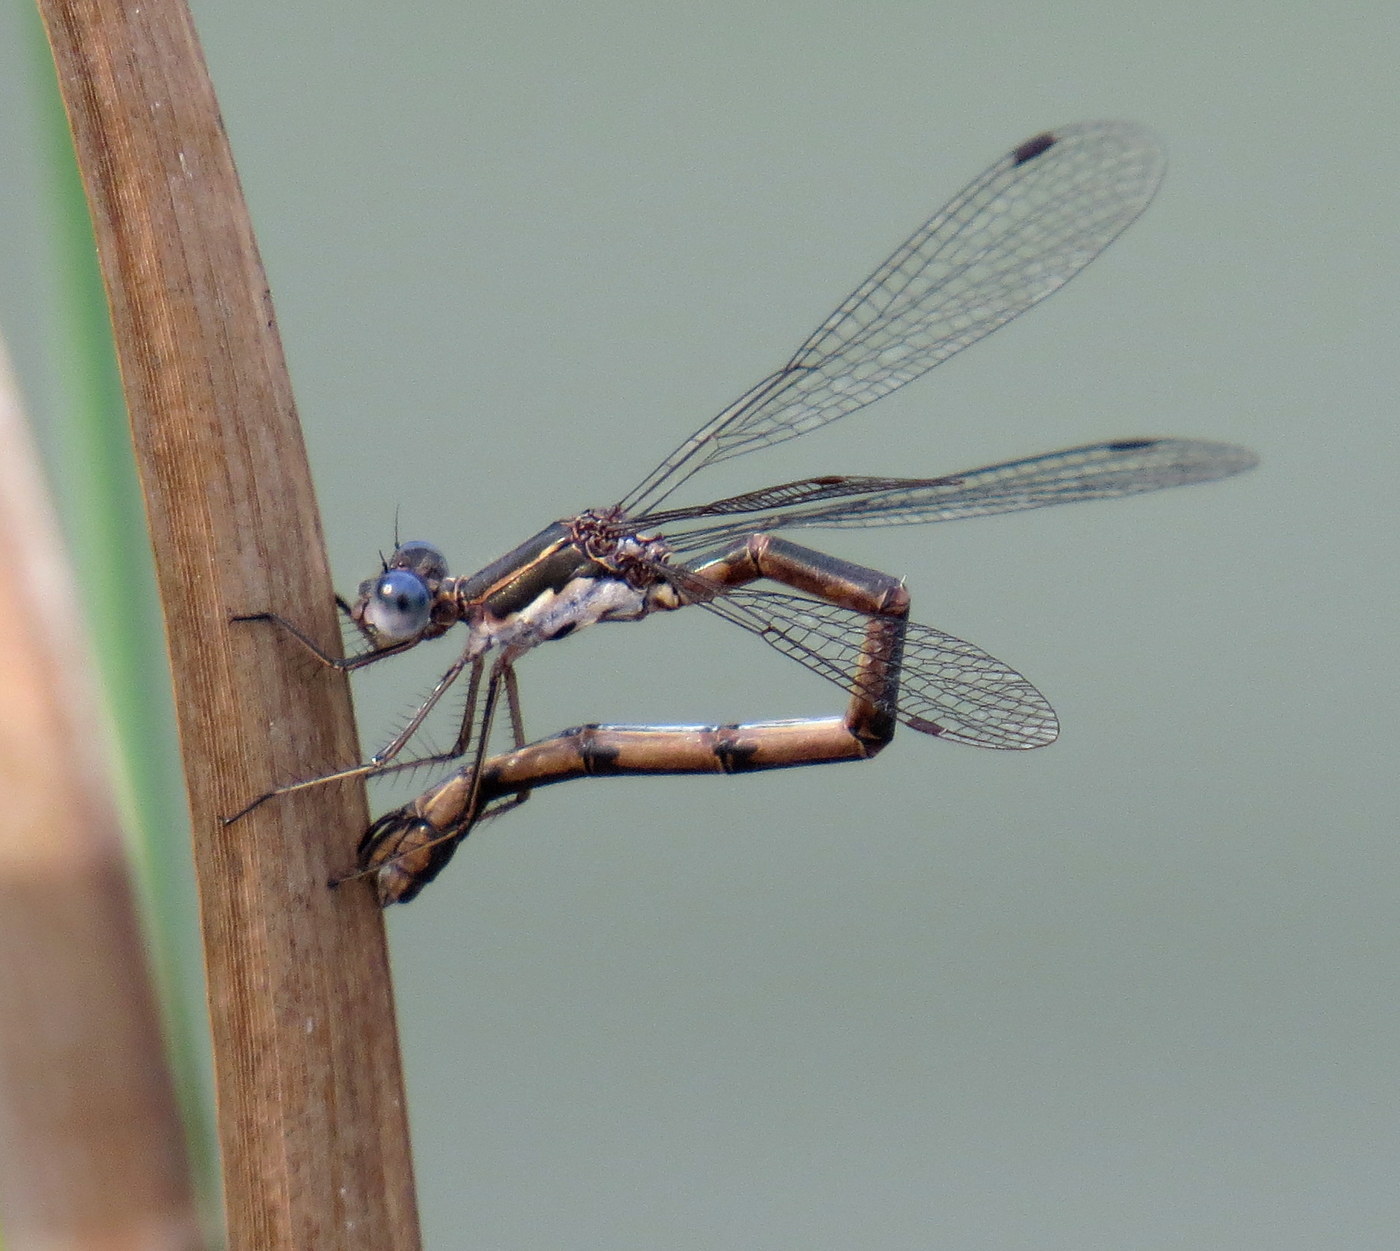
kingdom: Animalia
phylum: Arthropoda
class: Insecta
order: Odonata
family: Lestidae
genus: Lestes
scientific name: Lestes congener
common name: Spotted spreadwing
